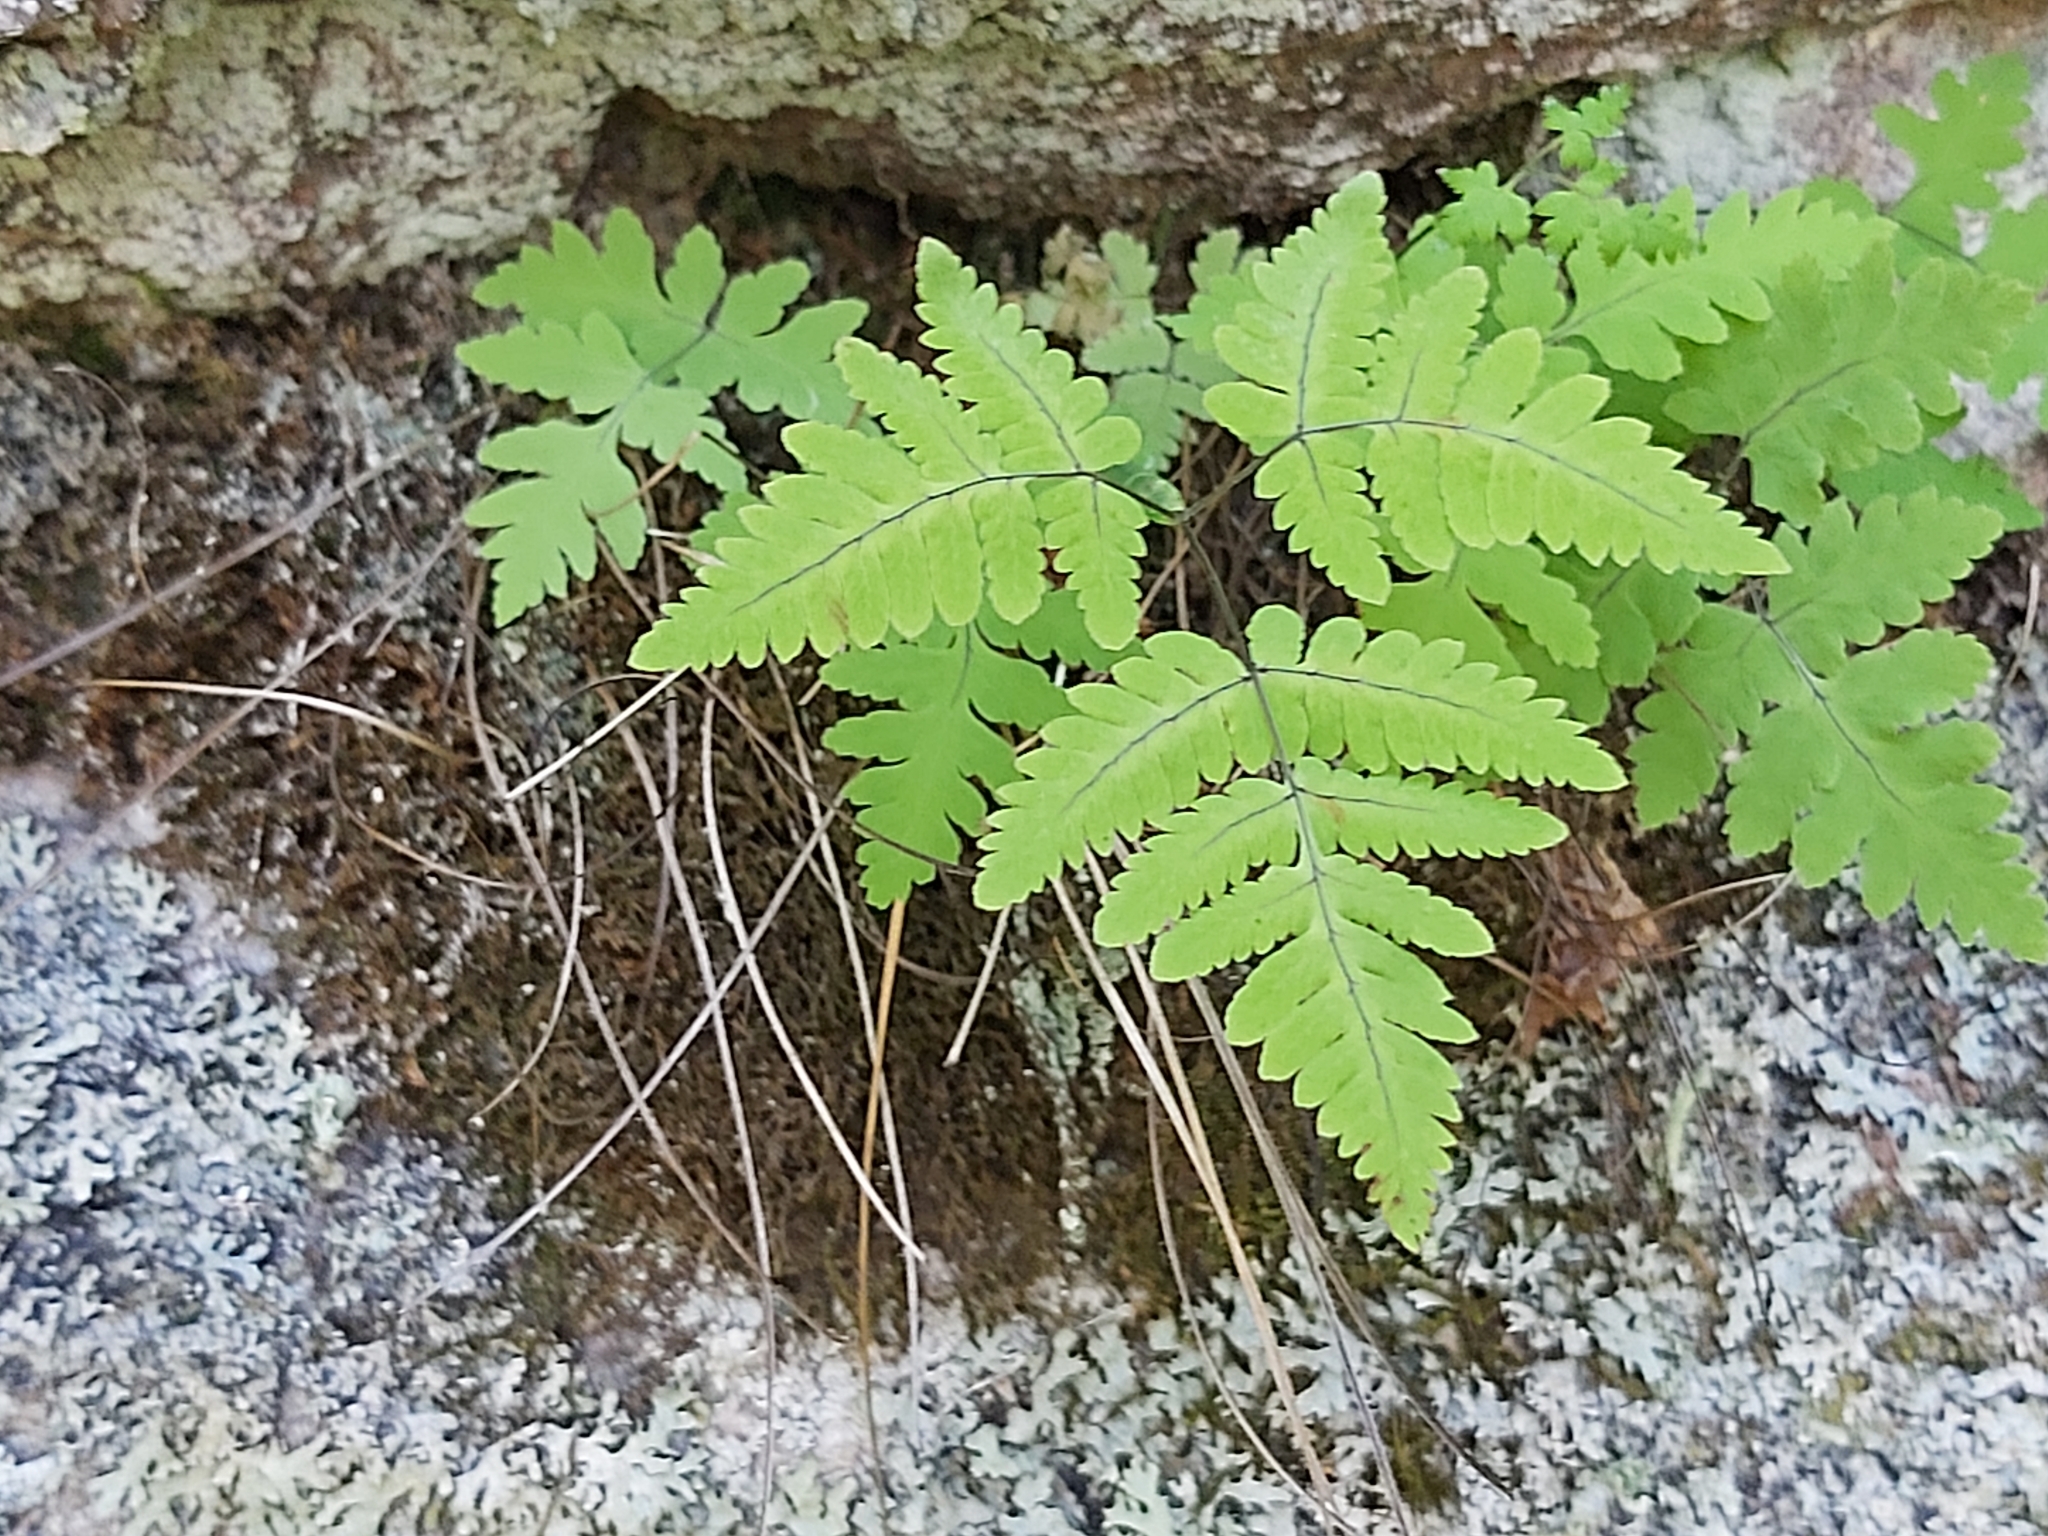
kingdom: Plantae
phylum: Tracheophyta
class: Polypodiopsida
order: Polypodiales
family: Cystopteridaceae
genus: Gymnocarpium
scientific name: Gymnocarpium dryopteris
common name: Oak fern
